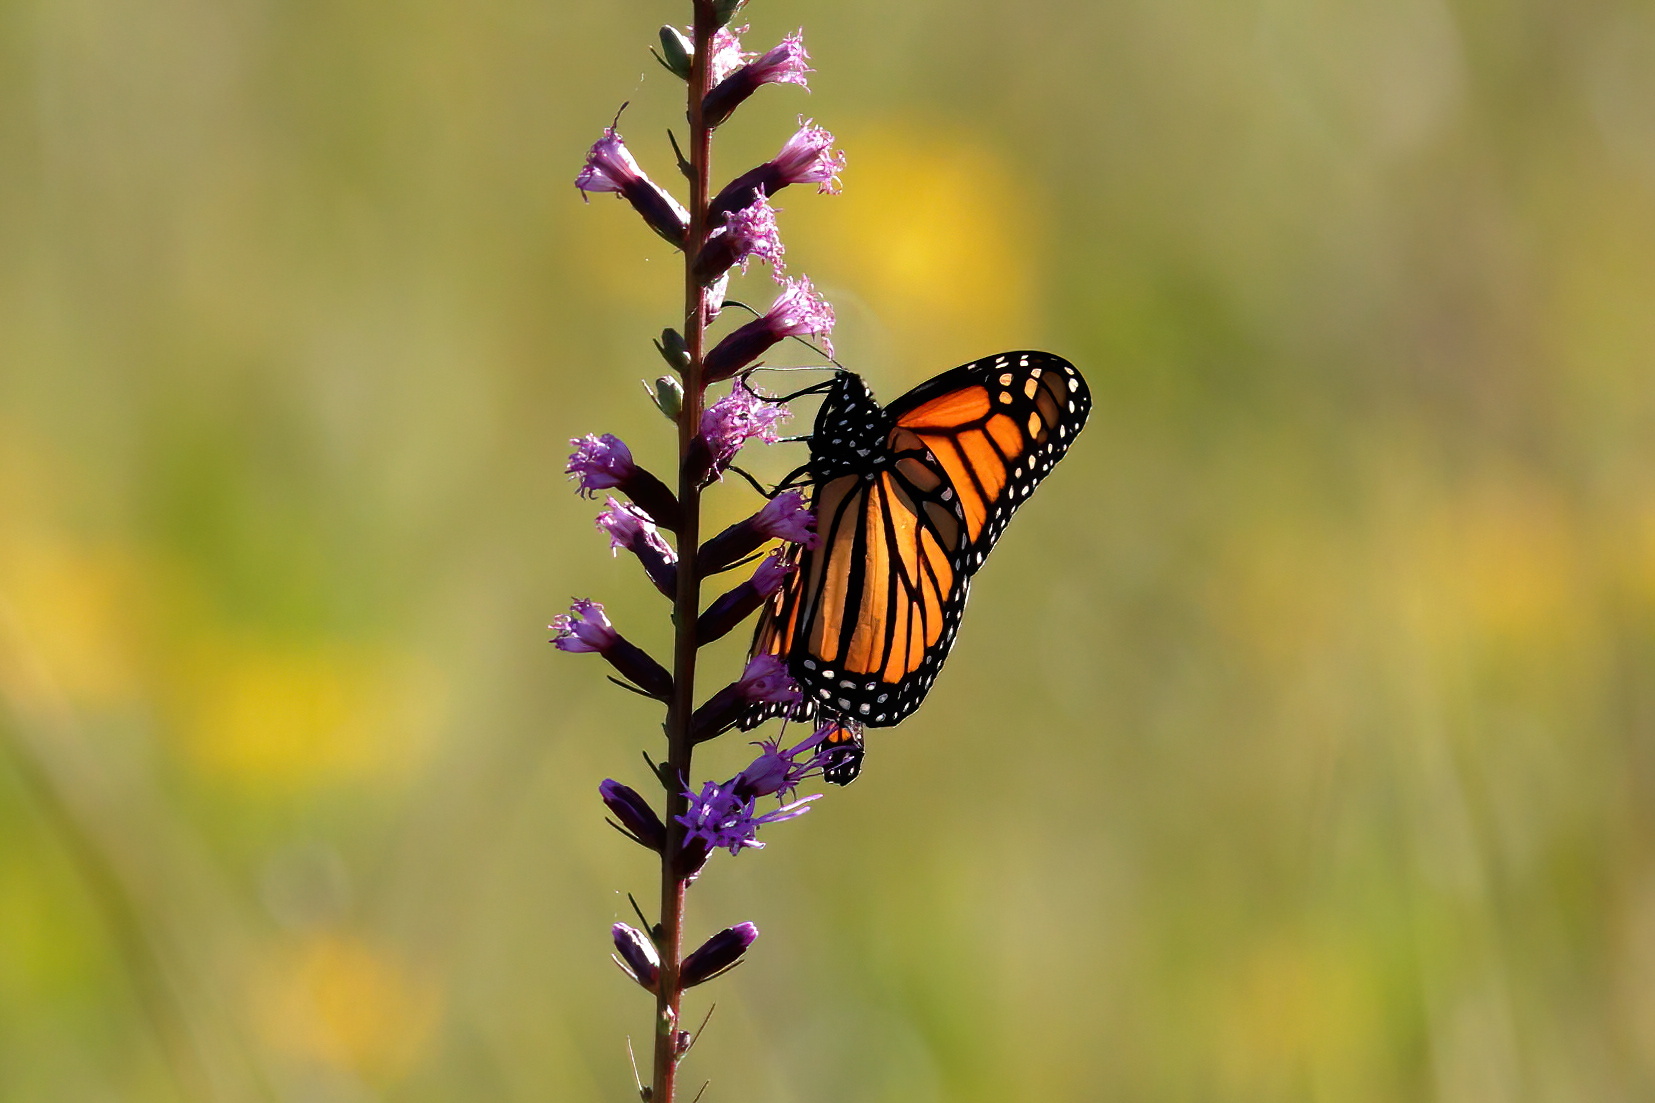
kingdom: Animalia
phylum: Arthropoda
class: Insecta
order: Lepidoptera
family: Nymphalidae
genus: Danaus
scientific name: Danaus plexippus
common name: Monarch
